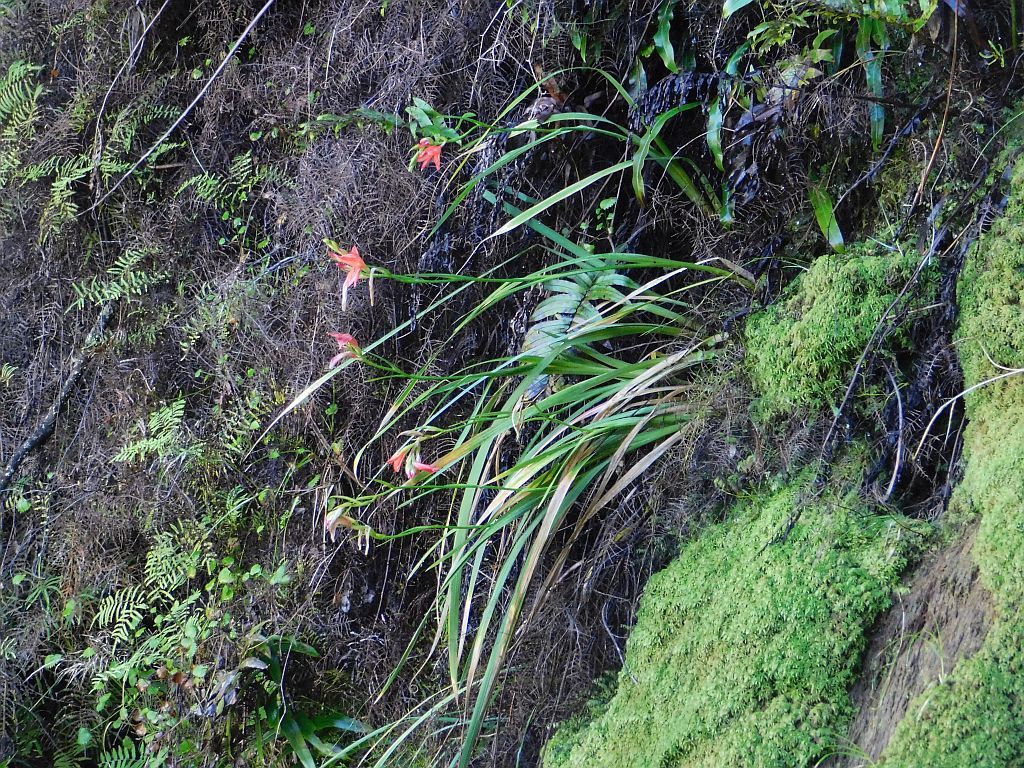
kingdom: Plantae
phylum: Tracheophyta
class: Liliopsida
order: Asparagales
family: Iridaceae
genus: Gladiolus
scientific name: Gladiolus cardinalis
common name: New year-lily
